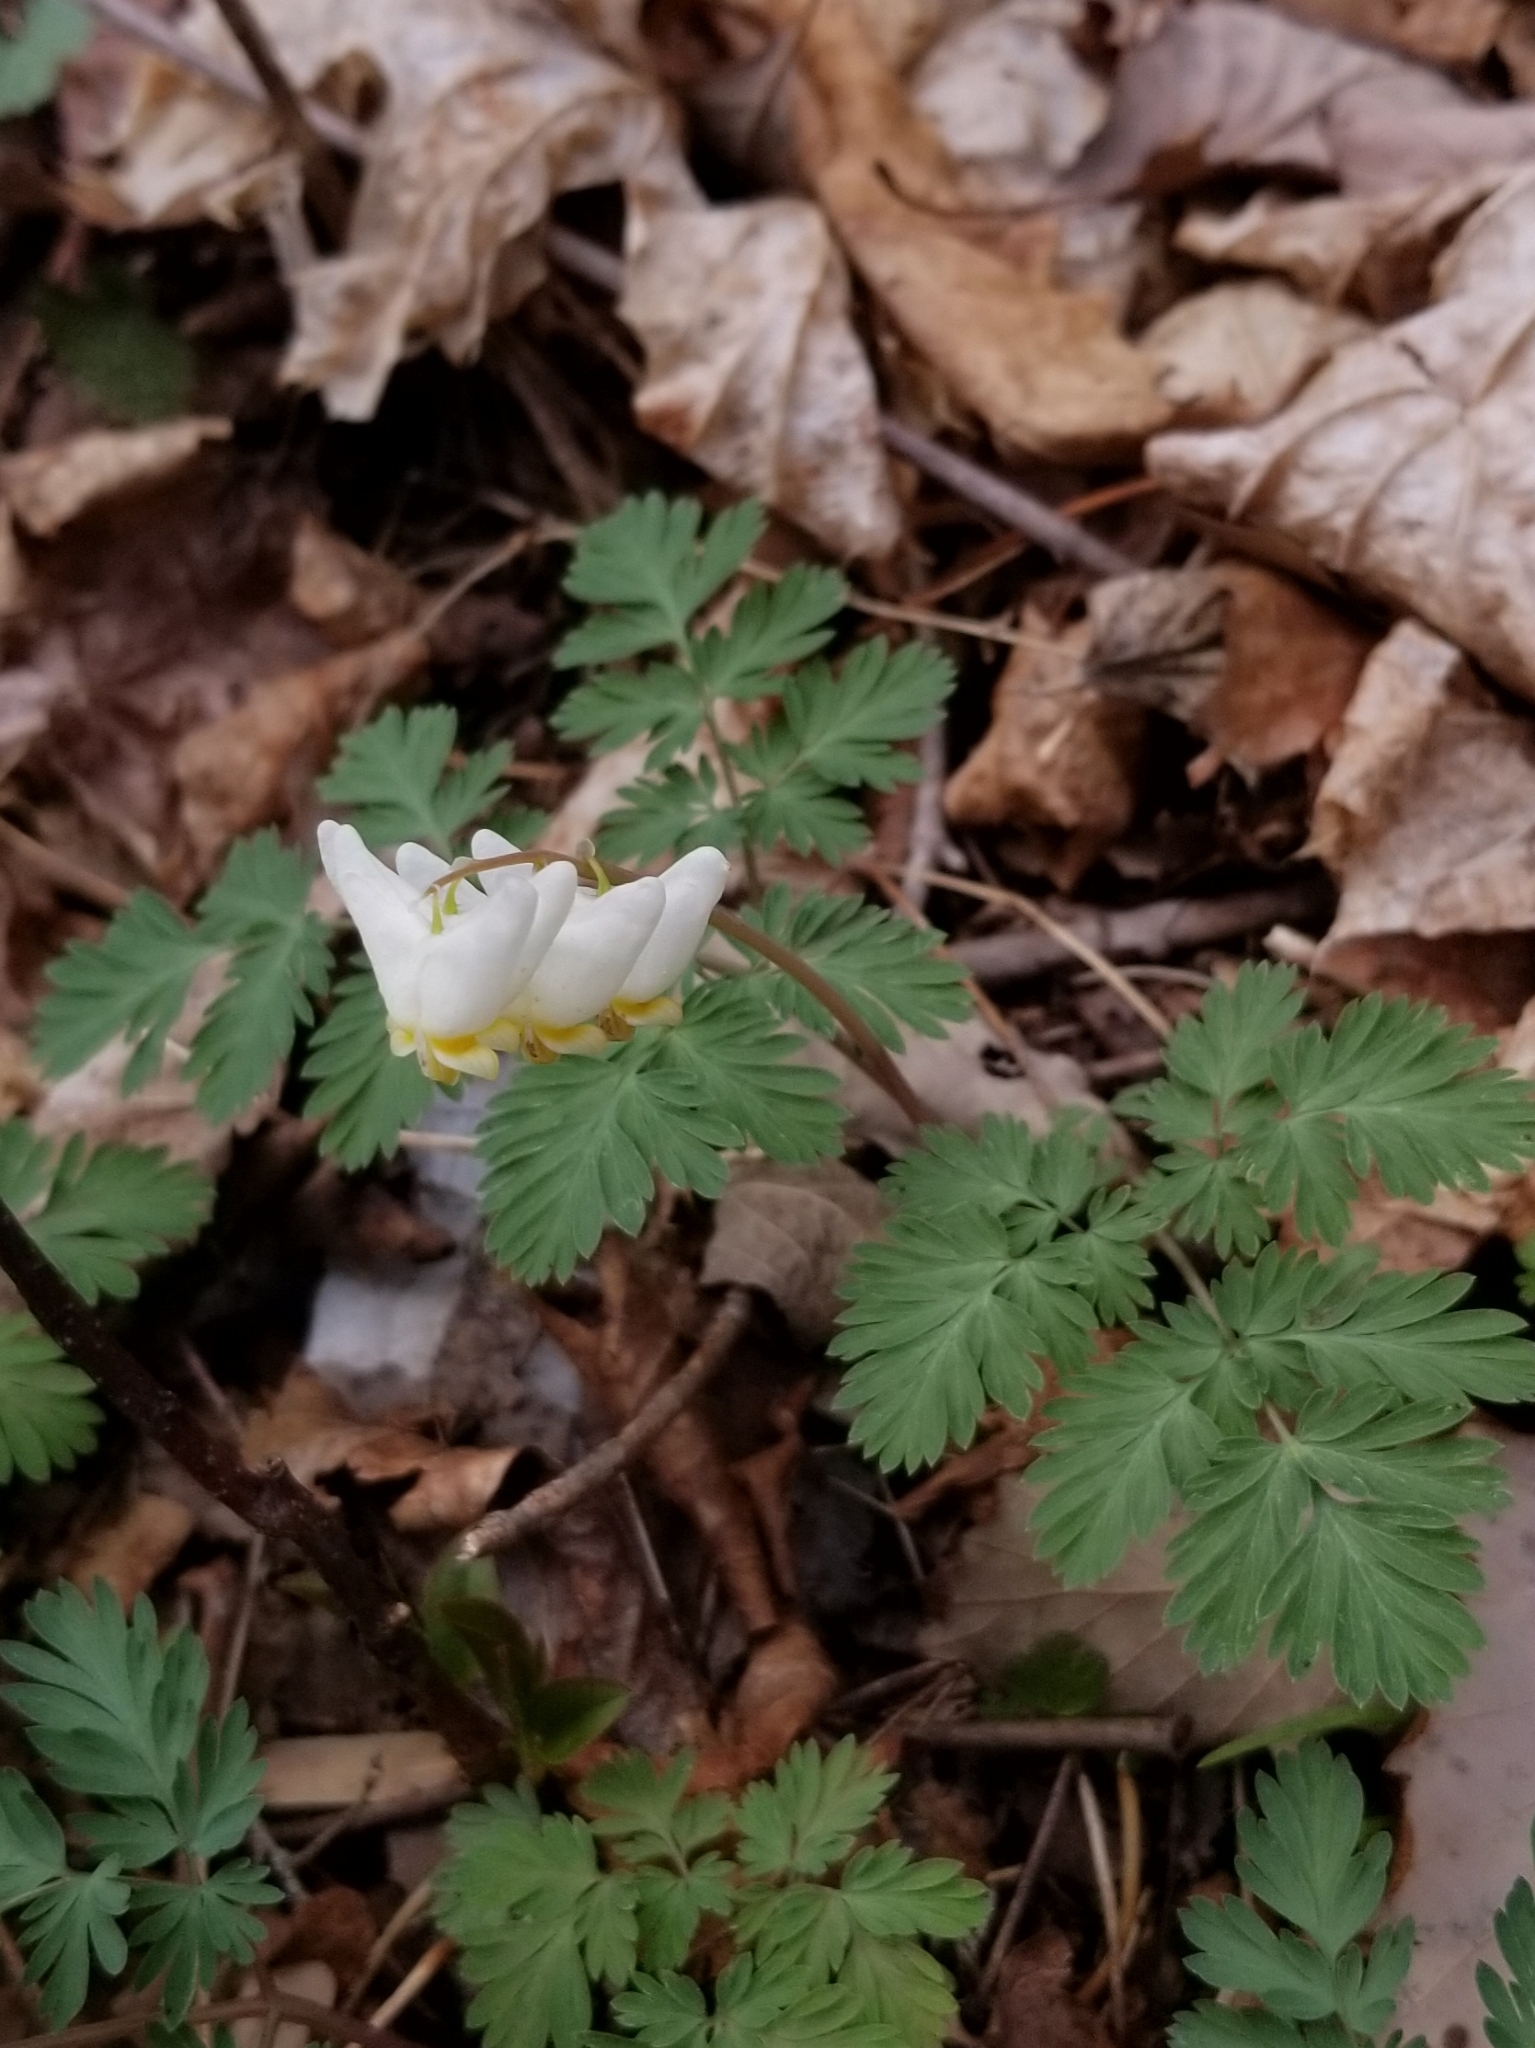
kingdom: Plantae
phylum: Tracheophyta
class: Magnoliopsida
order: Ranunculales
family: Papaveraceae
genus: Dicentra
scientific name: Dicentra cucullaria
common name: Dutchman's breeches
